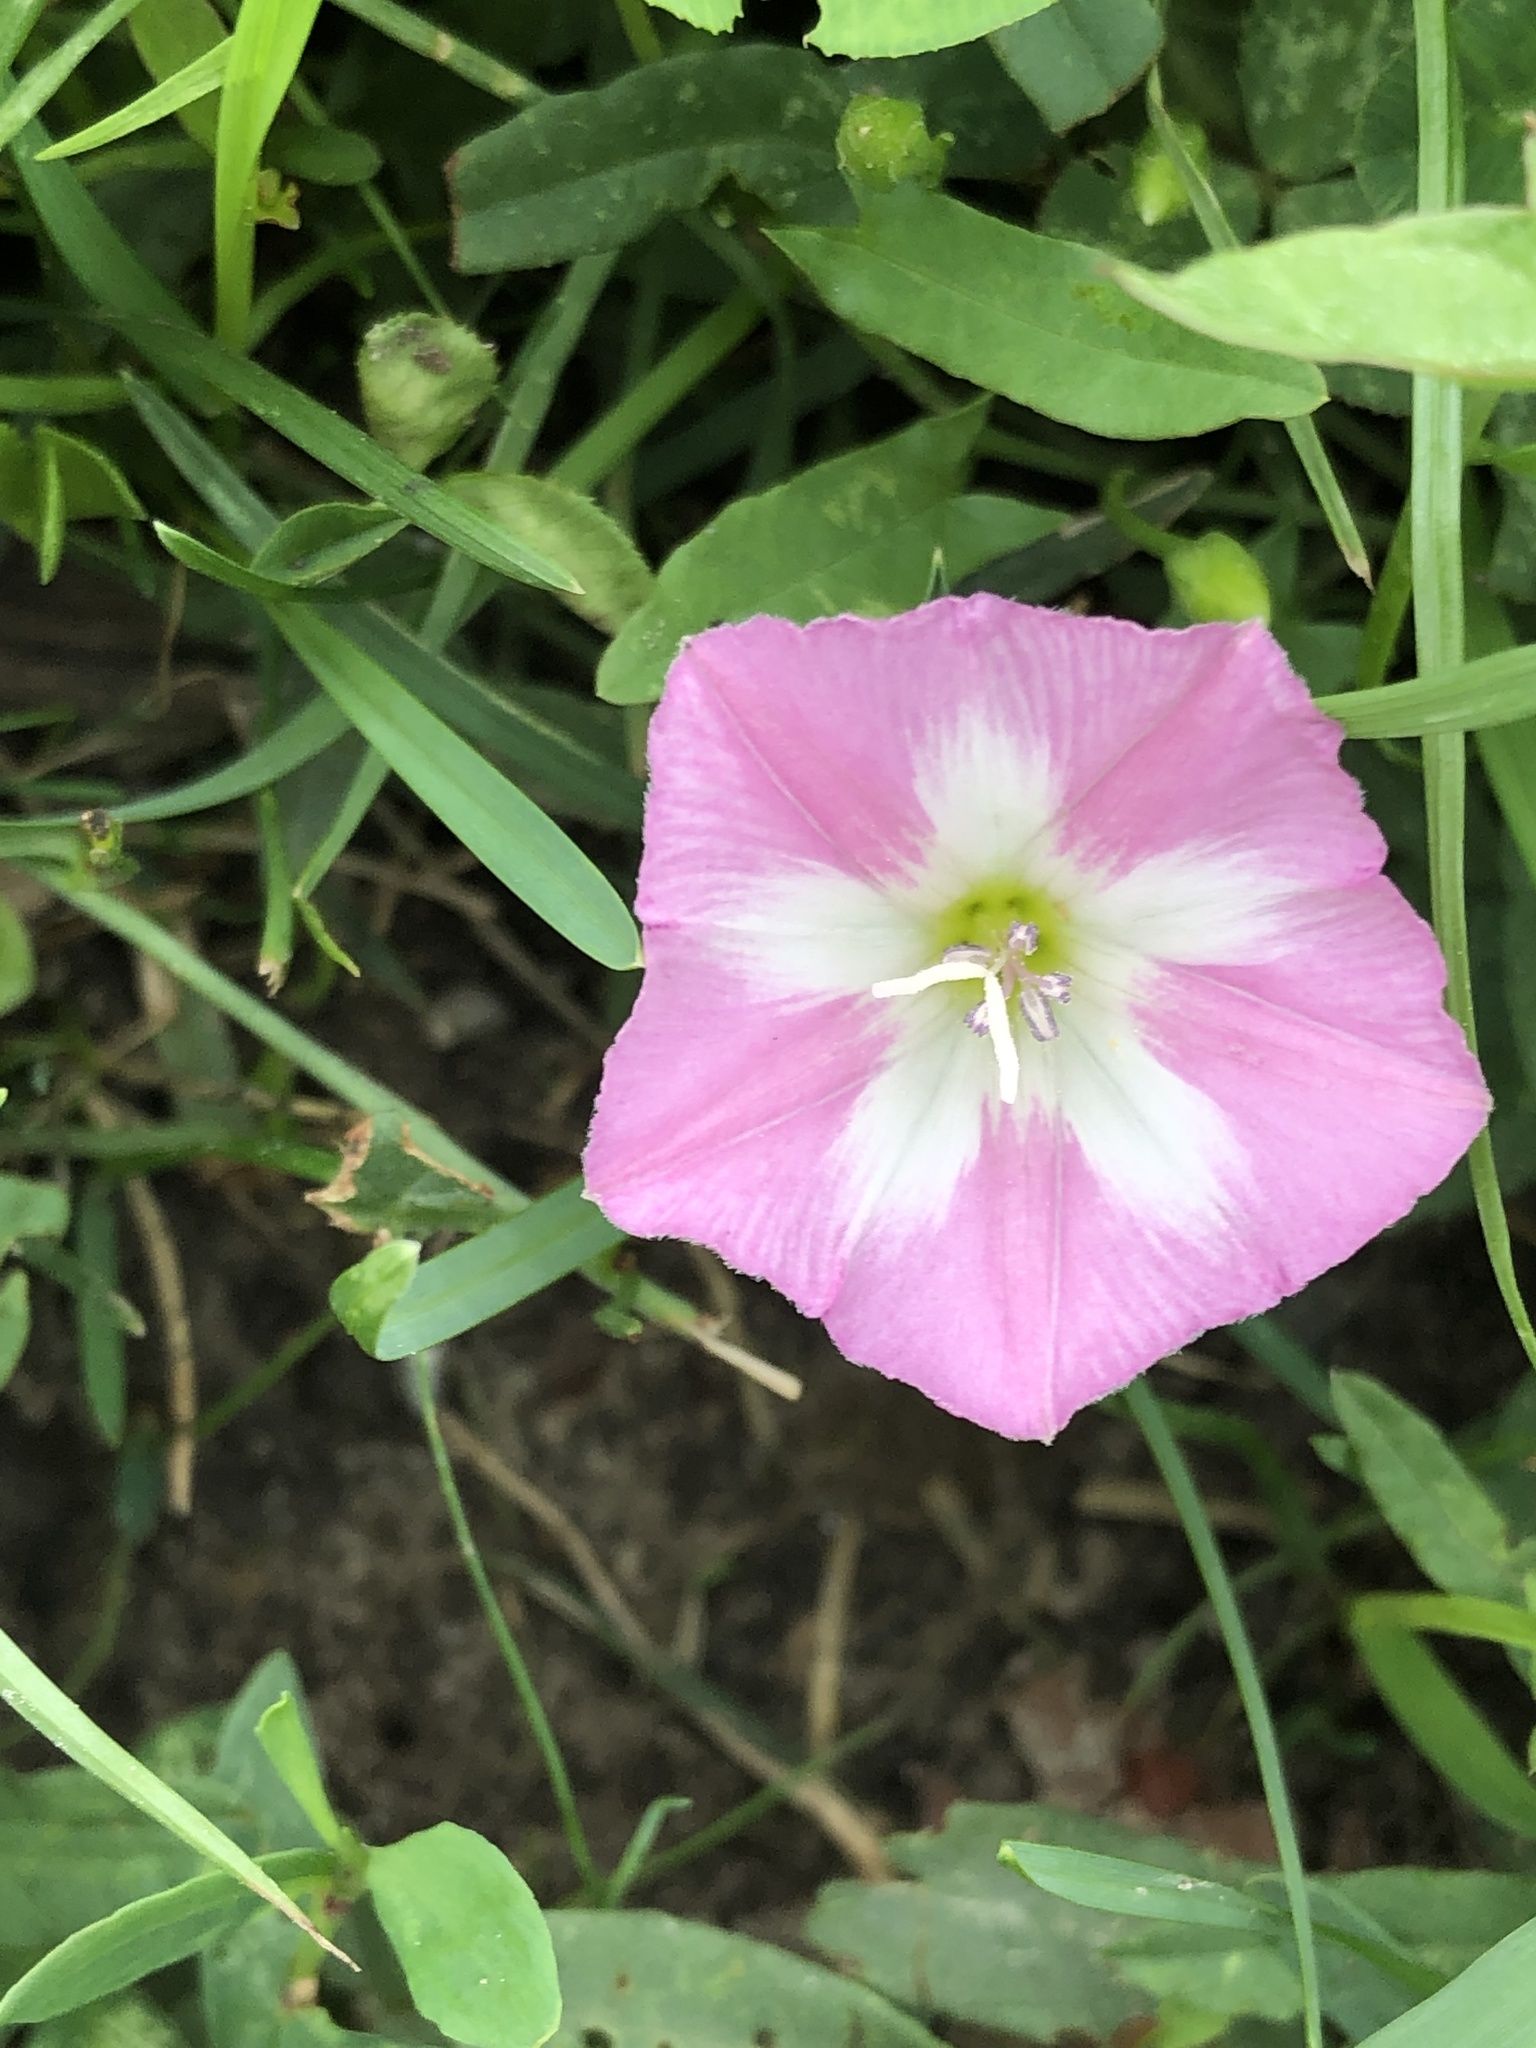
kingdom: Plantae
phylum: Tracheophyta
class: Magnoliopsida
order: Solanales
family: Convolvulaceae
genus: Convolvulus
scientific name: Convolvulus arvensis
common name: Field bindweed
